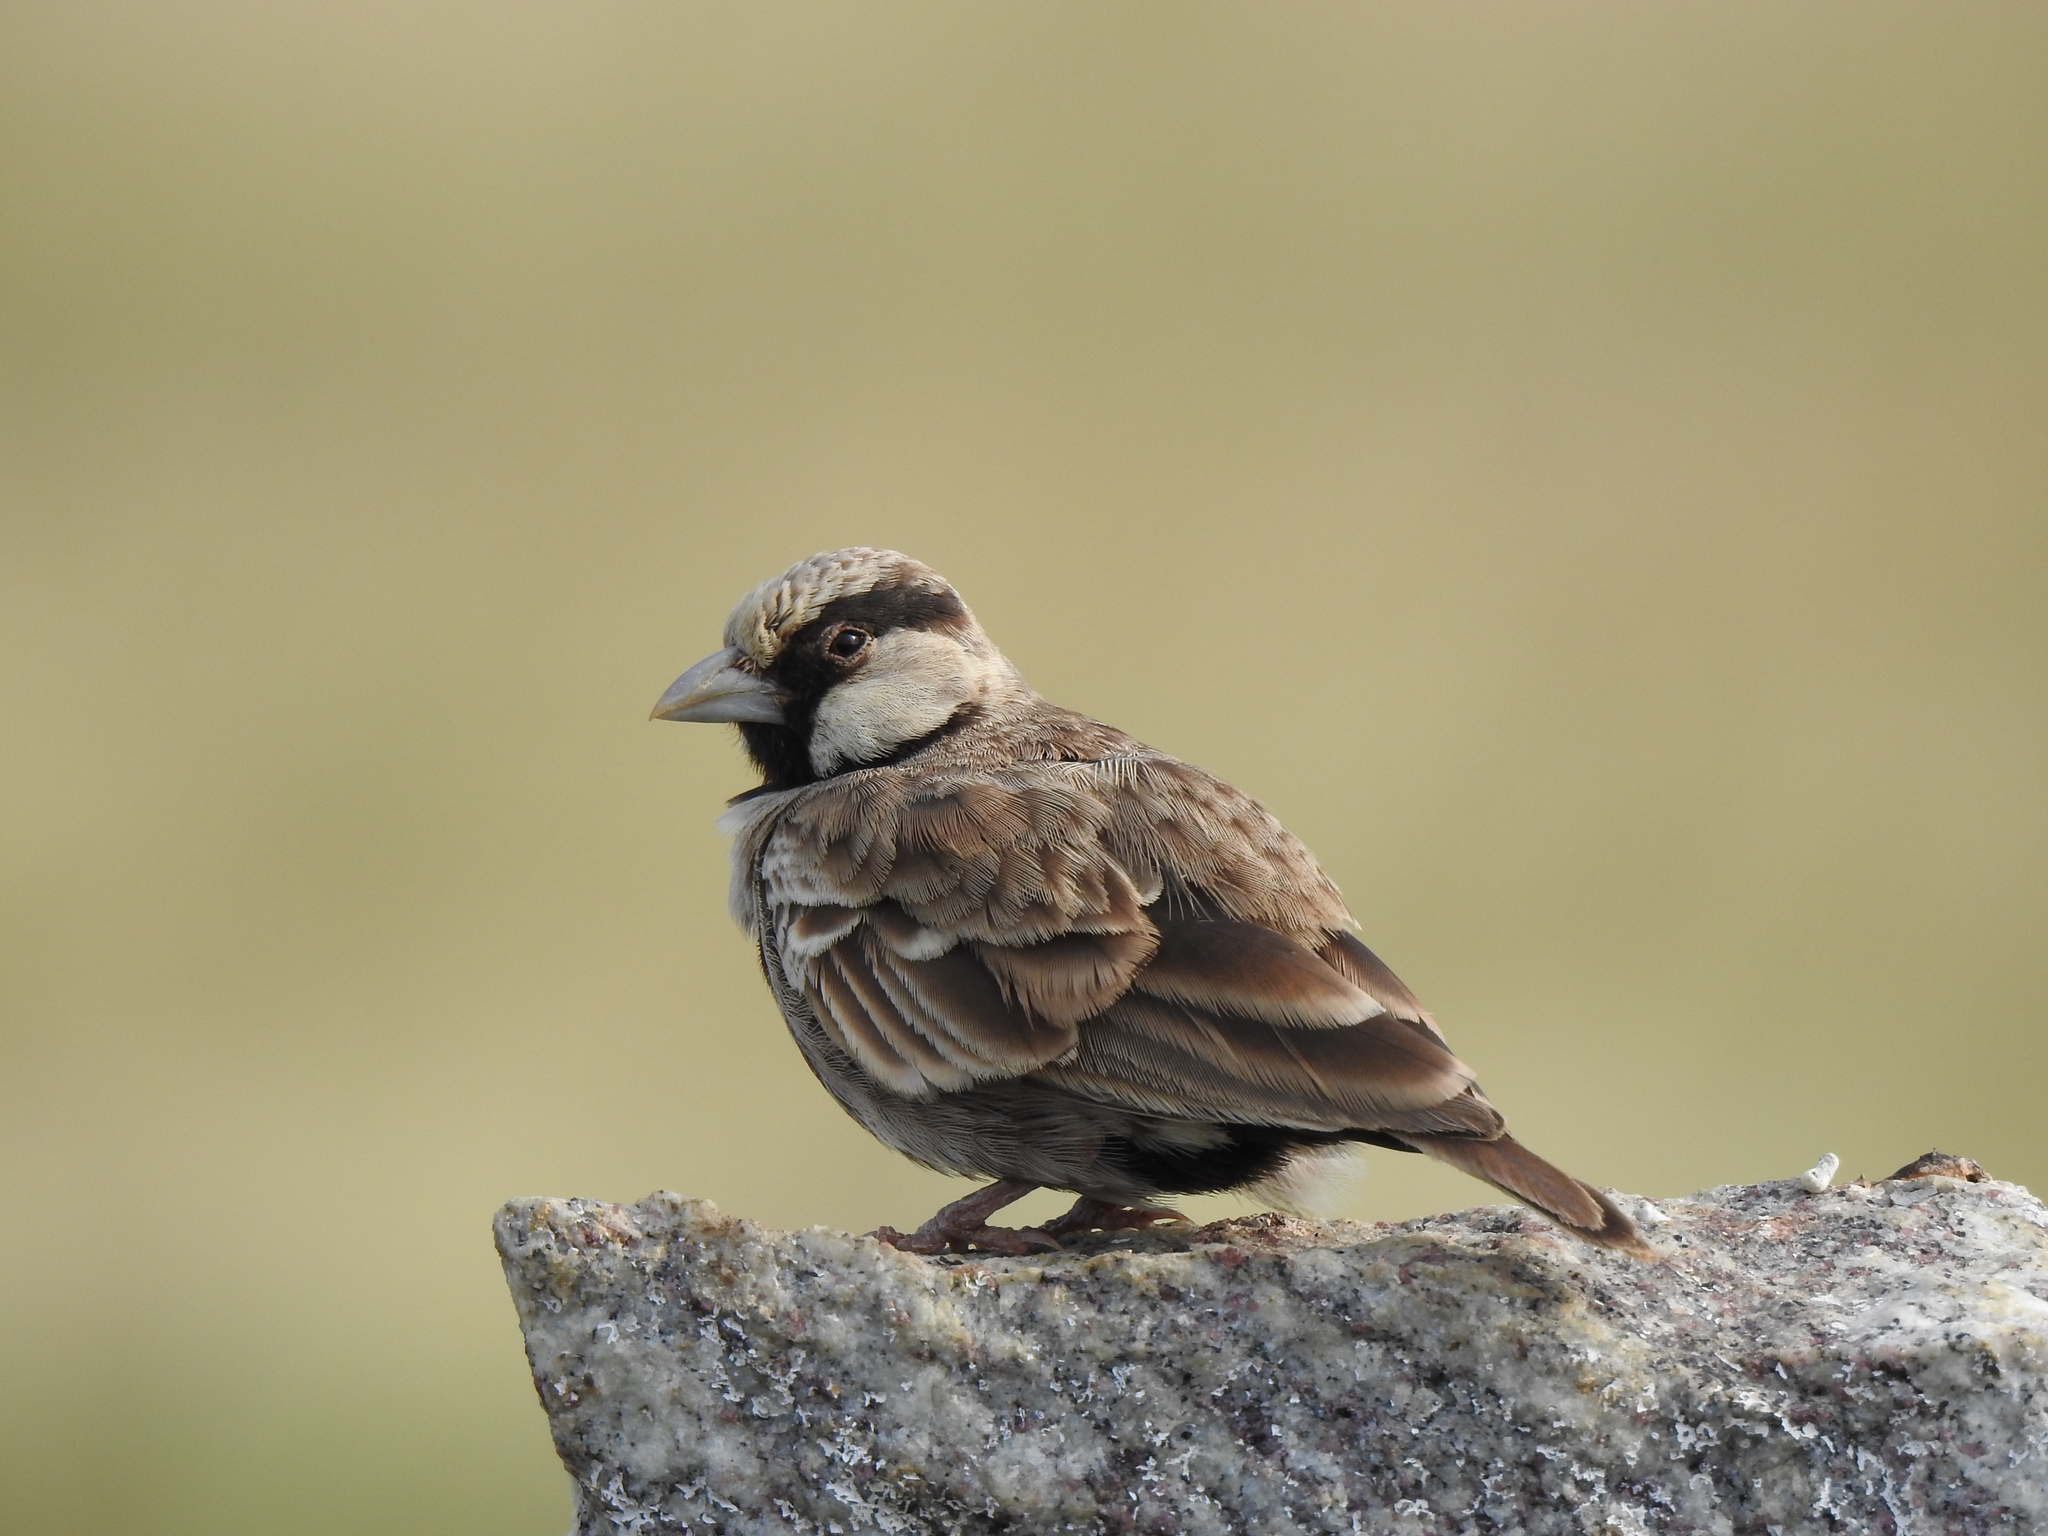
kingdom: Animalia
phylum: Chordata
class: Aves
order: Passeriformes
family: Alaudidae
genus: Eremopterix
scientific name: Eremopterix griseus
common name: Ashy-crowned sparrow-lark
